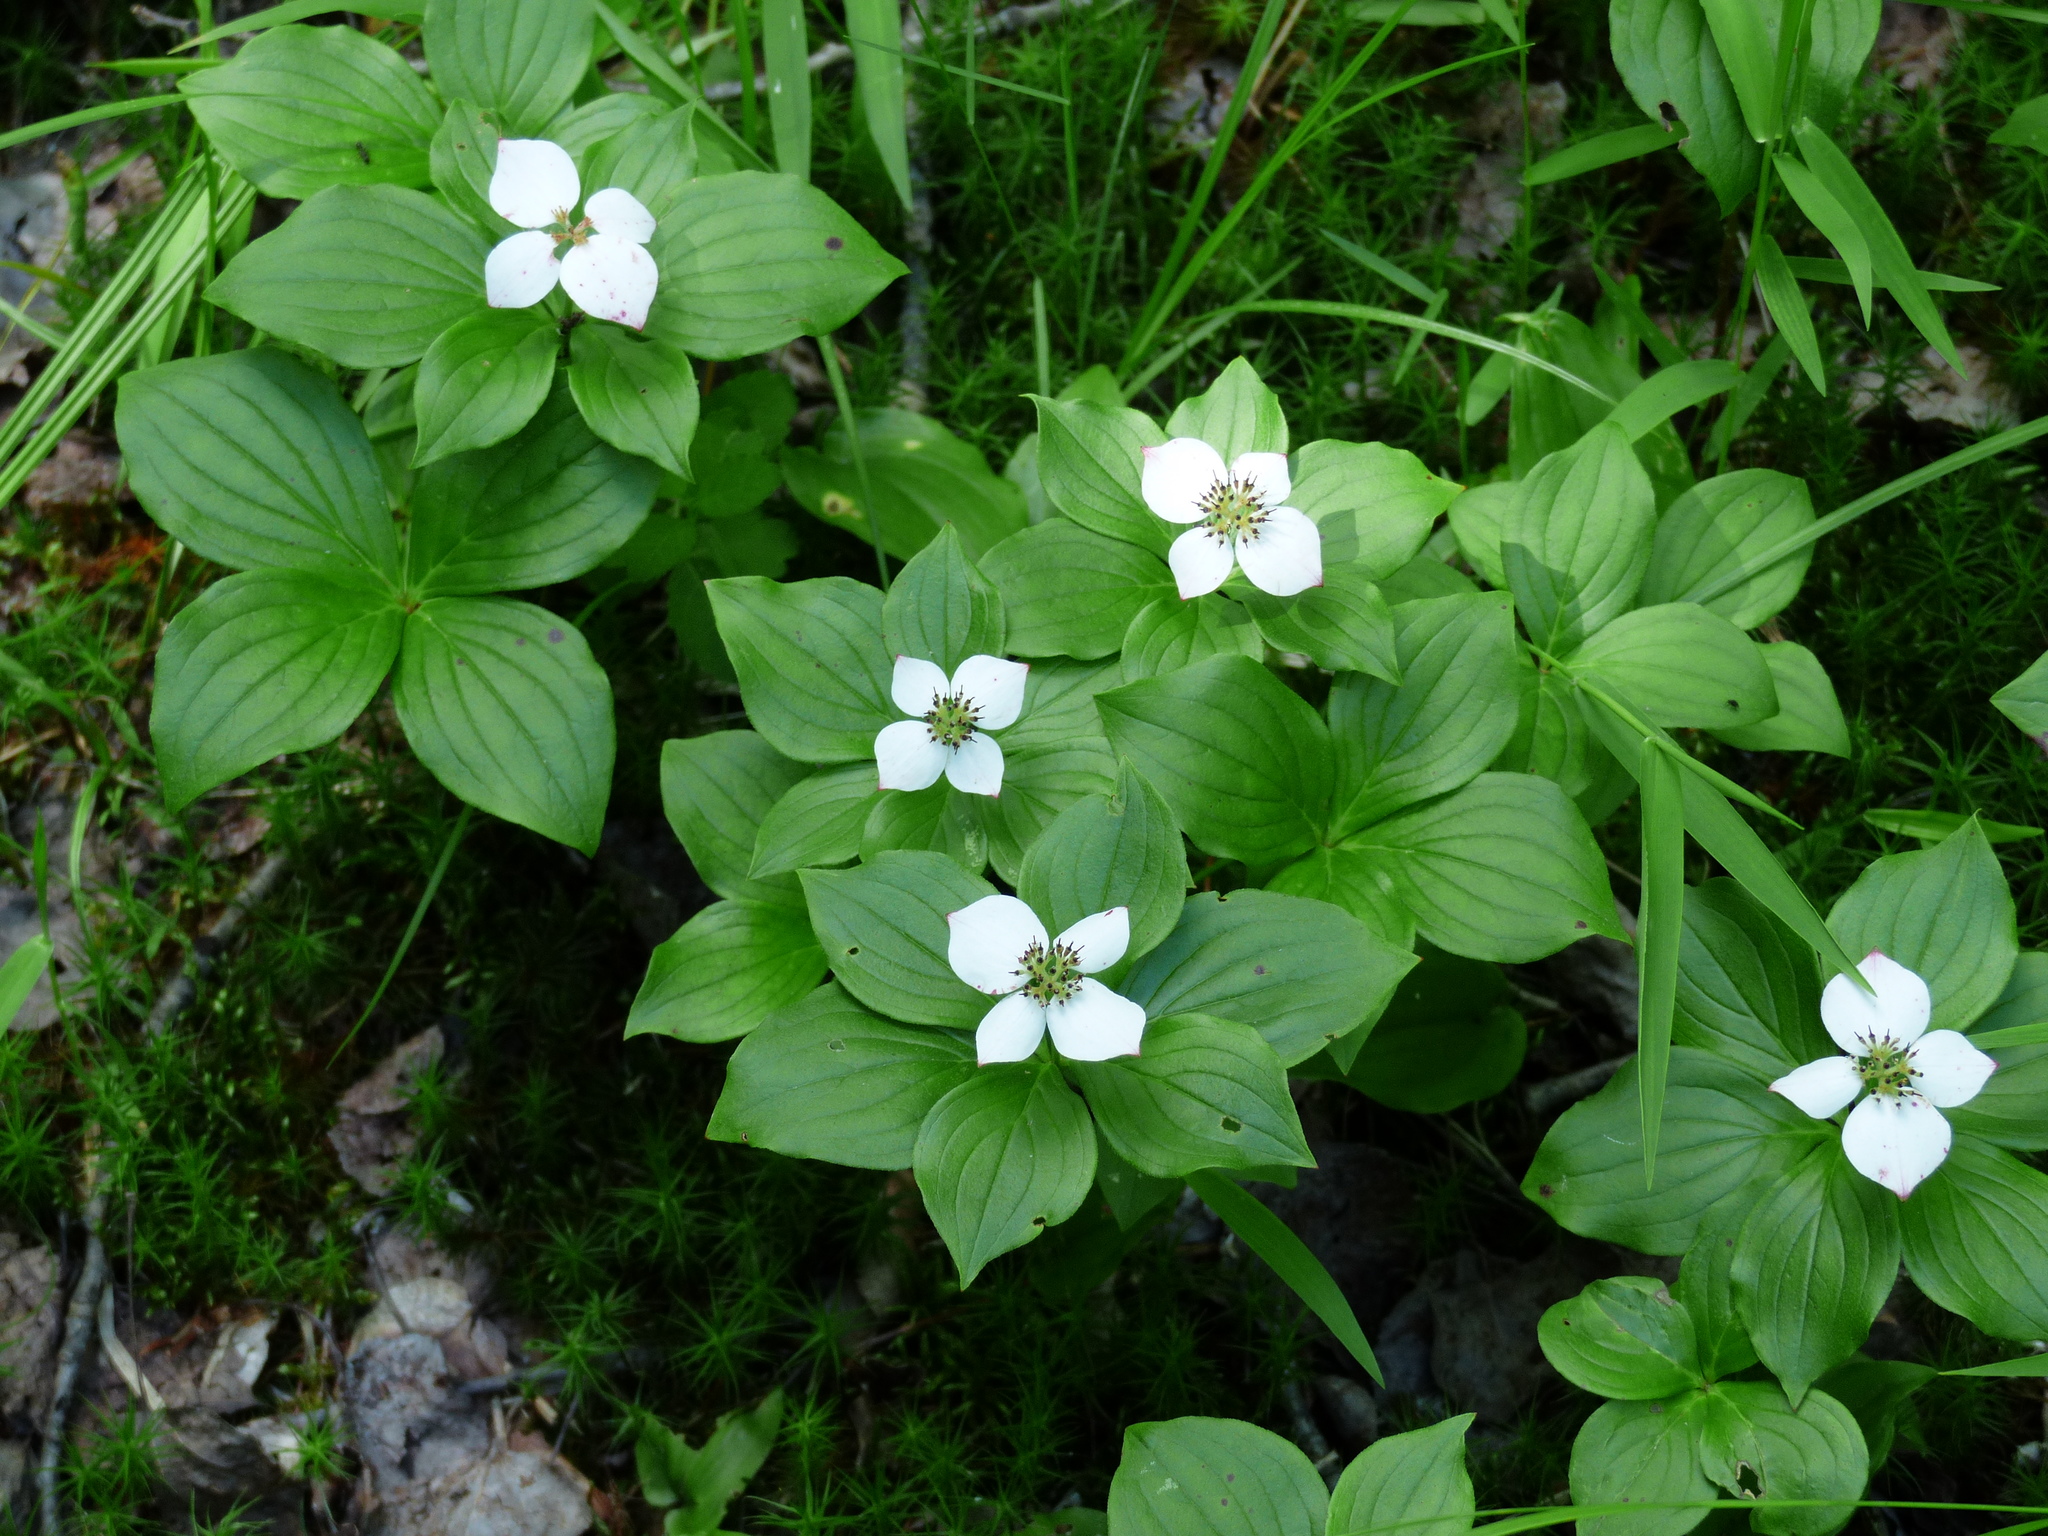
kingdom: Plantae
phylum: Tracheophyta
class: Magnoliopsida
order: Cornales
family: Cornaceae
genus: Cornus
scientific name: Cornus canadensis
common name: Creeping dogwood
